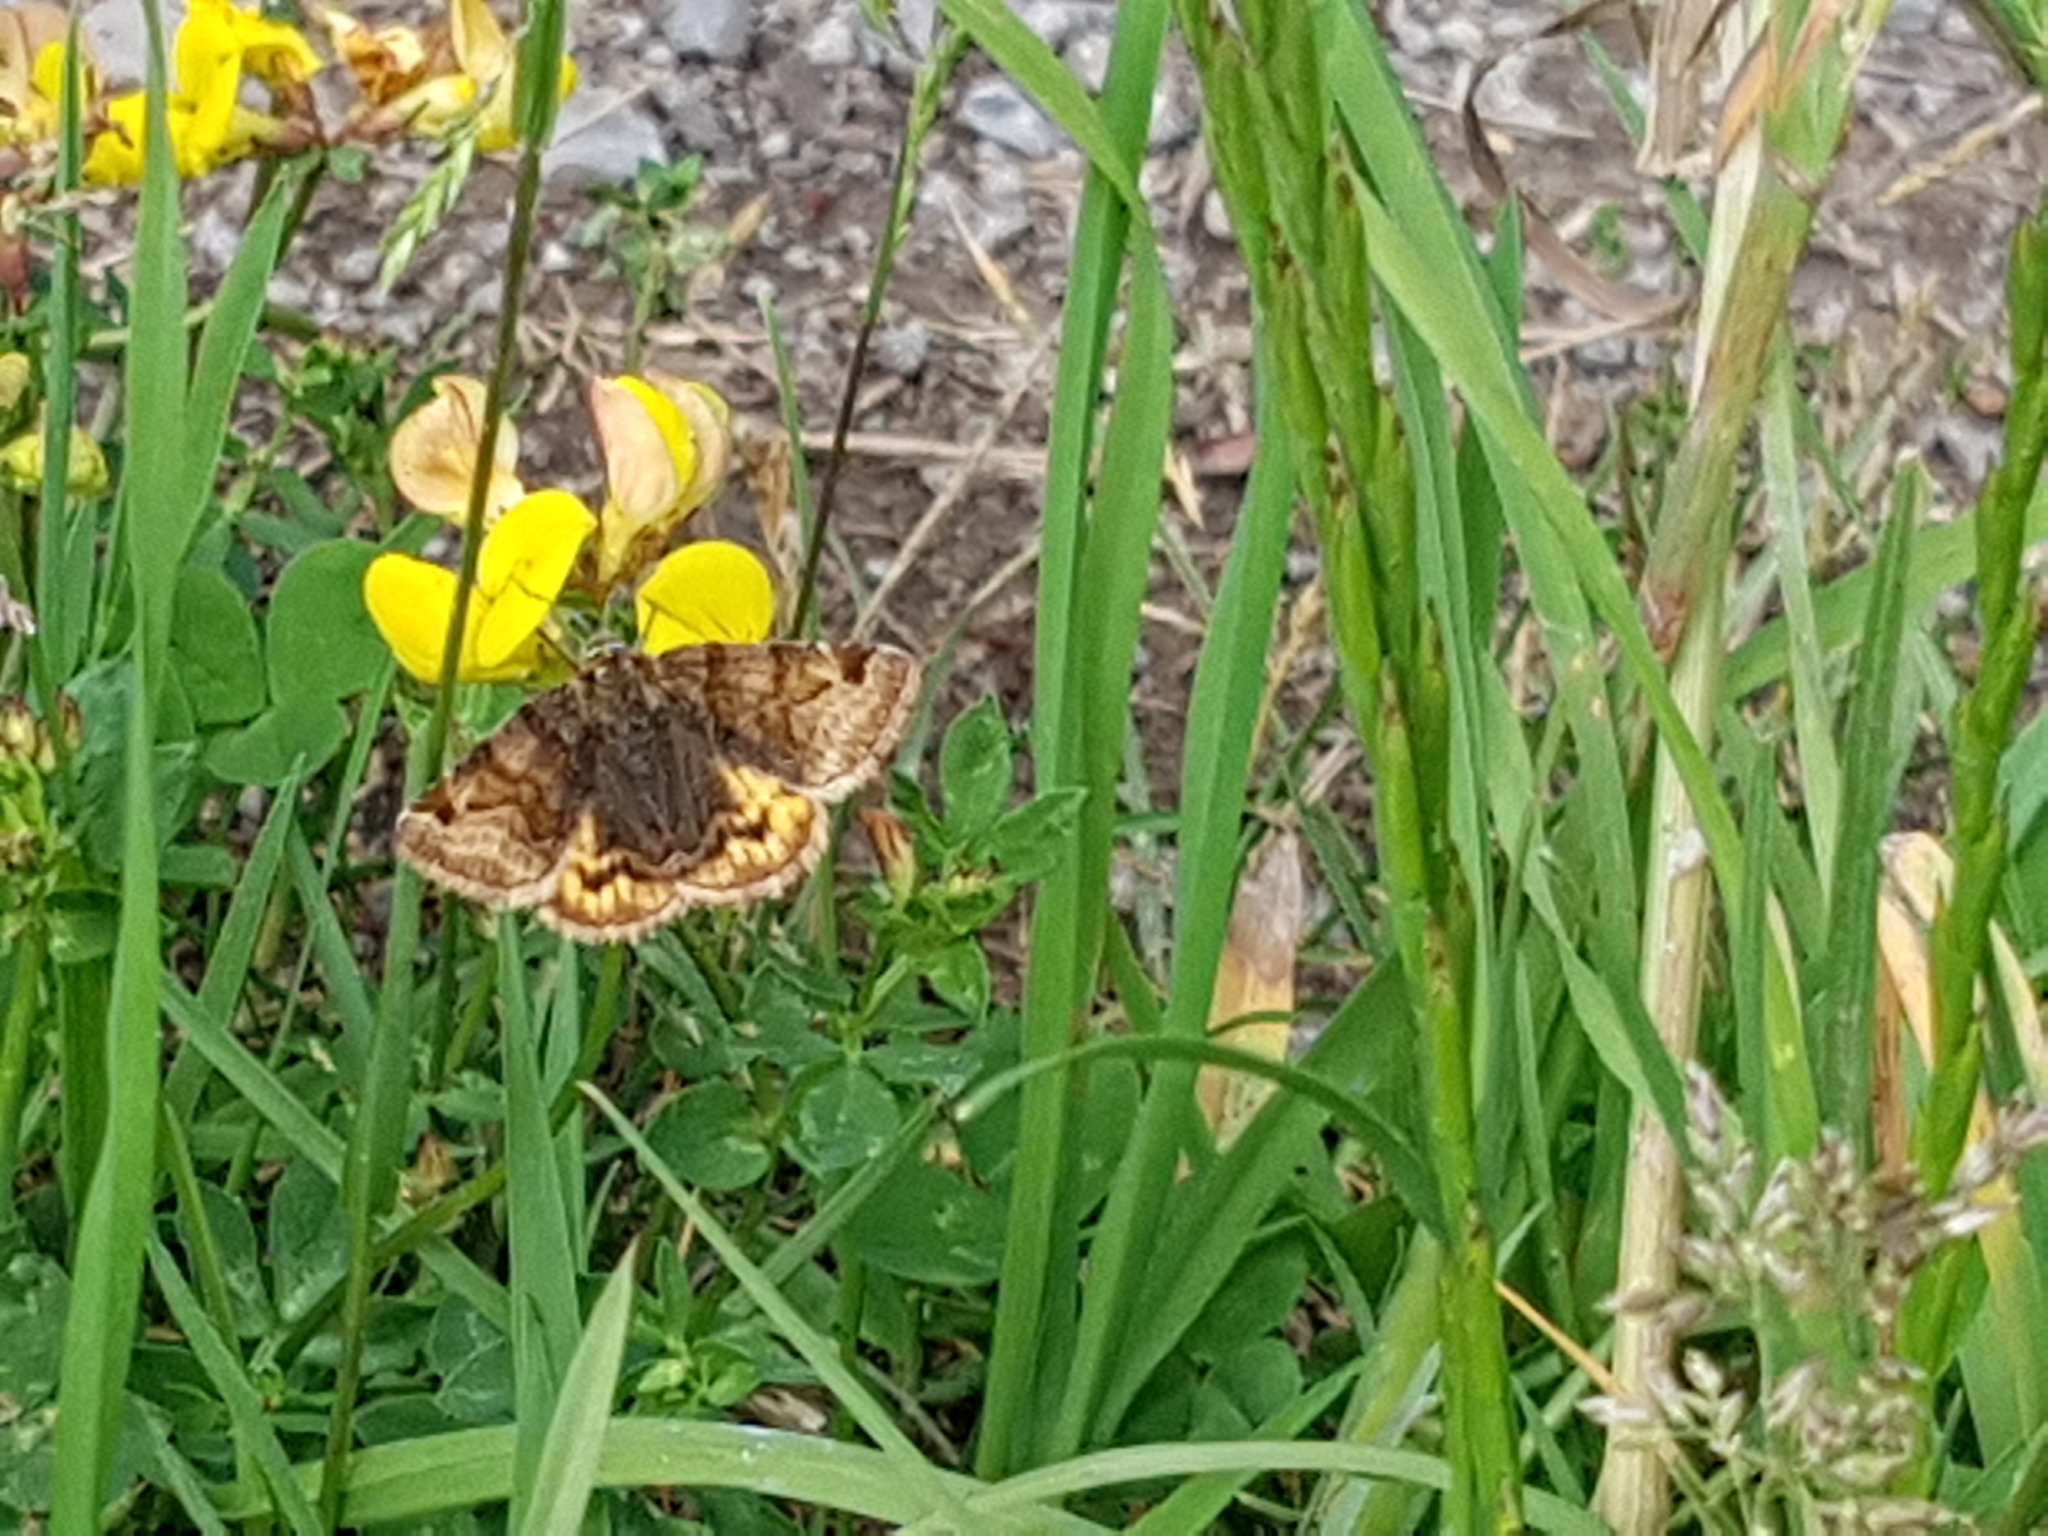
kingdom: Animalia
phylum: Arthropoda
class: Insecta
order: Lepidoptera
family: Erebidae
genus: Euclidia
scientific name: Euclidia glyphica
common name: Burnet companion
